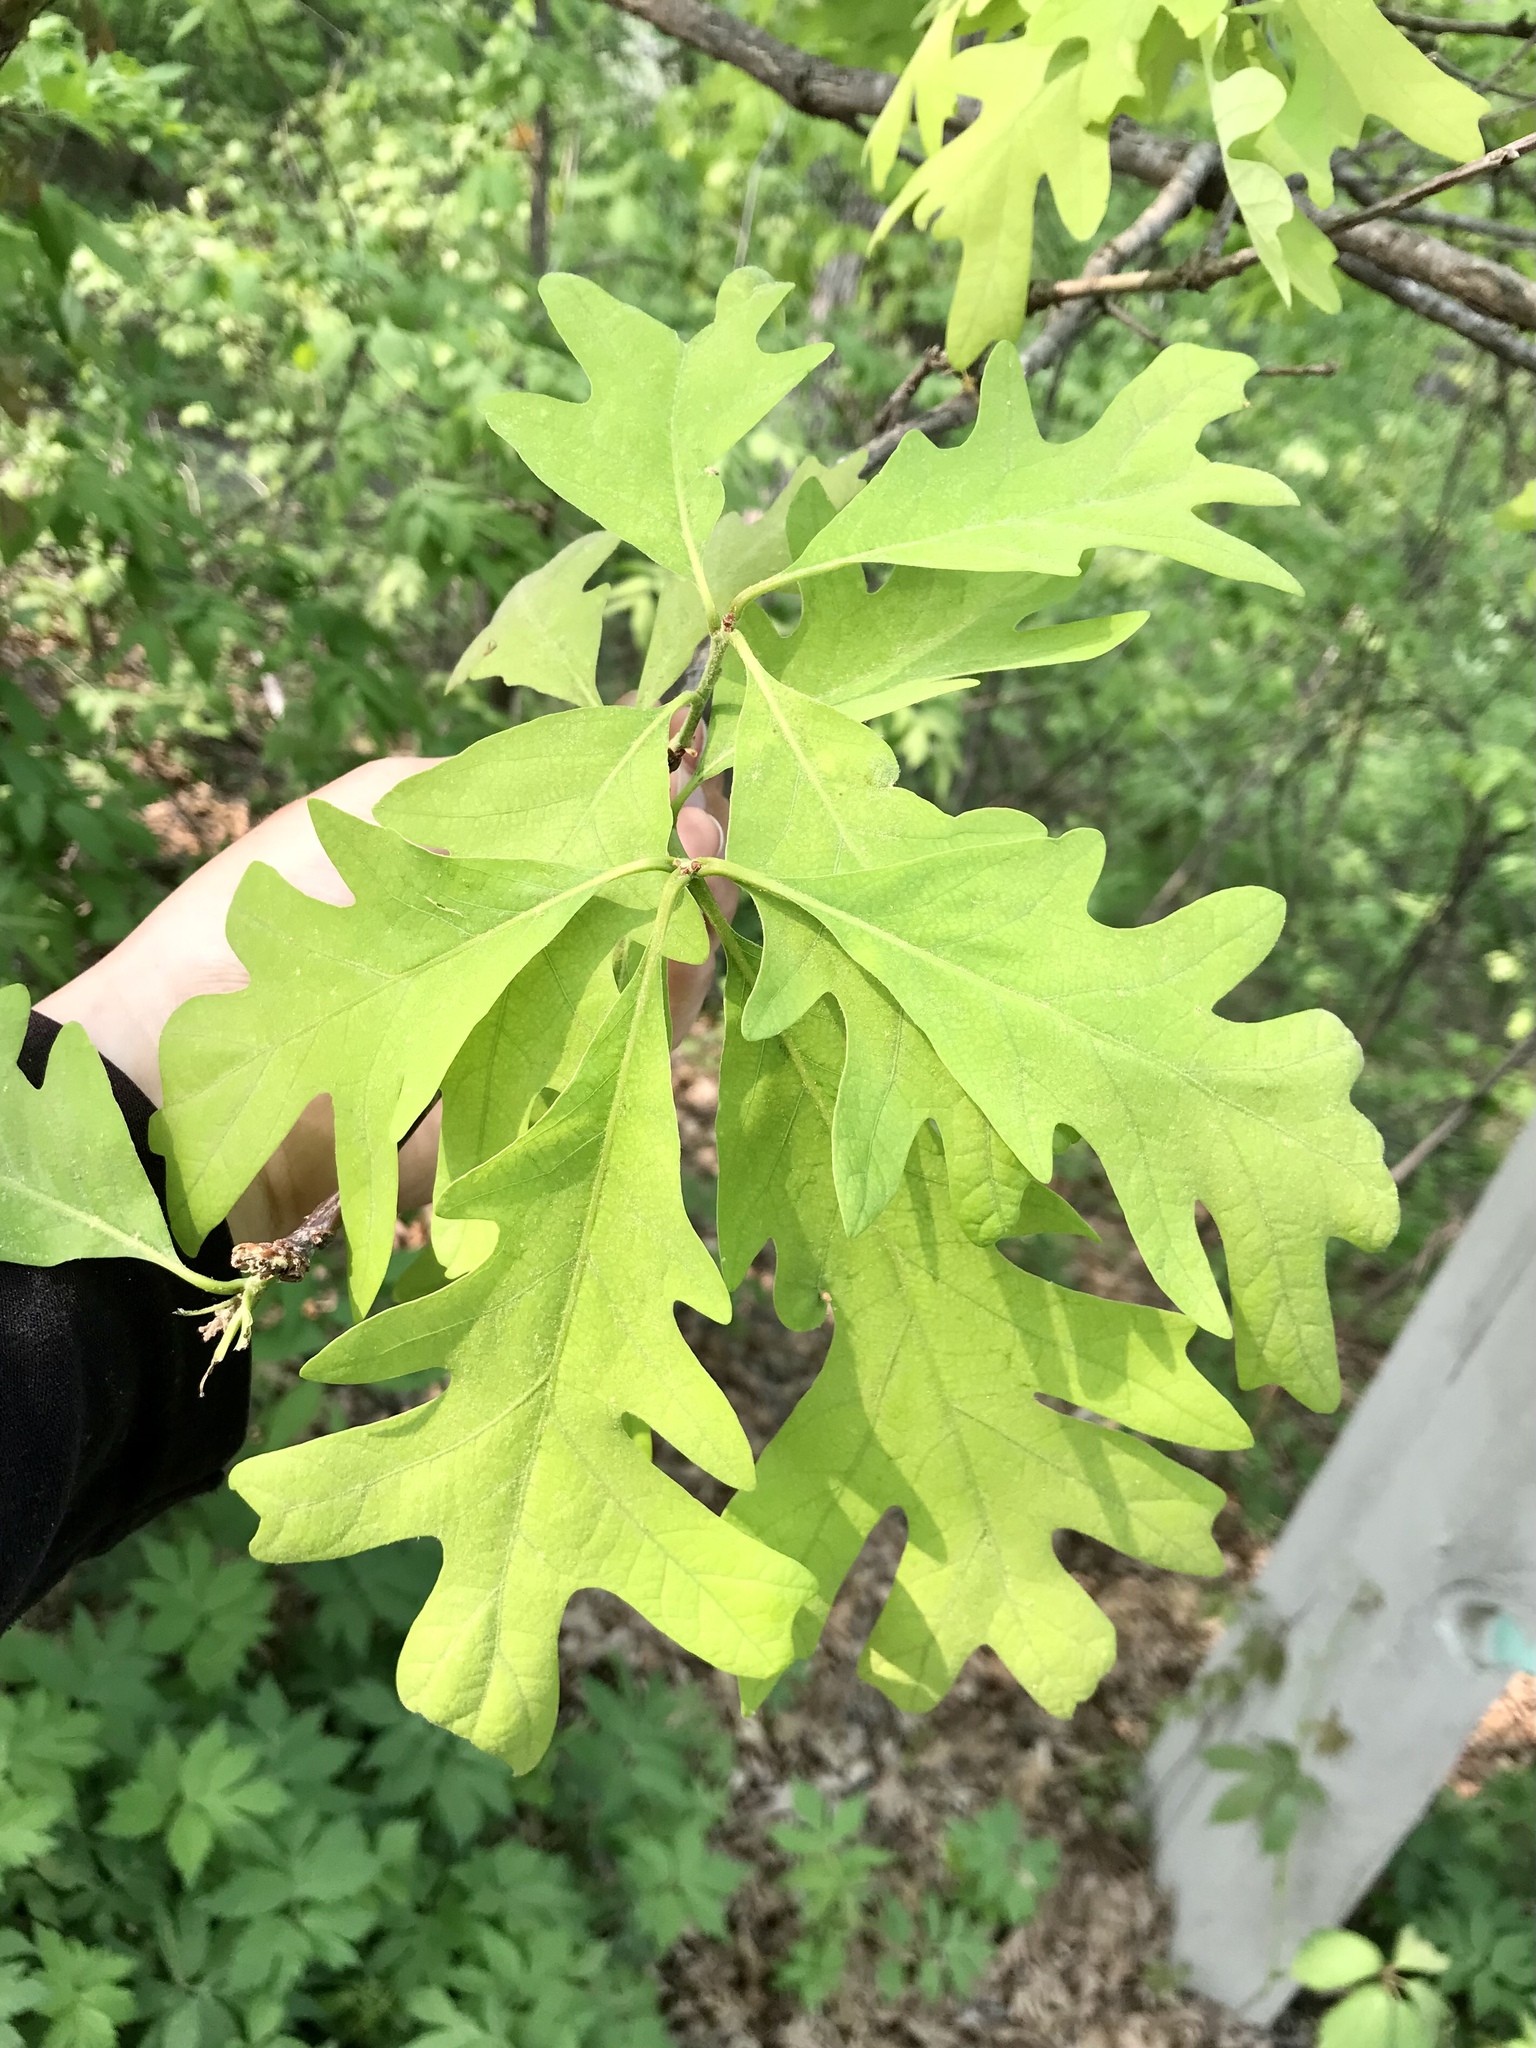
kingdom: Plantae
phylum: Tracheophyta
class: Magnoliopsida
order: Fagales
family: Fagaceae
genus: Quercus
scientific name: Quercus alba
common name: White oak
